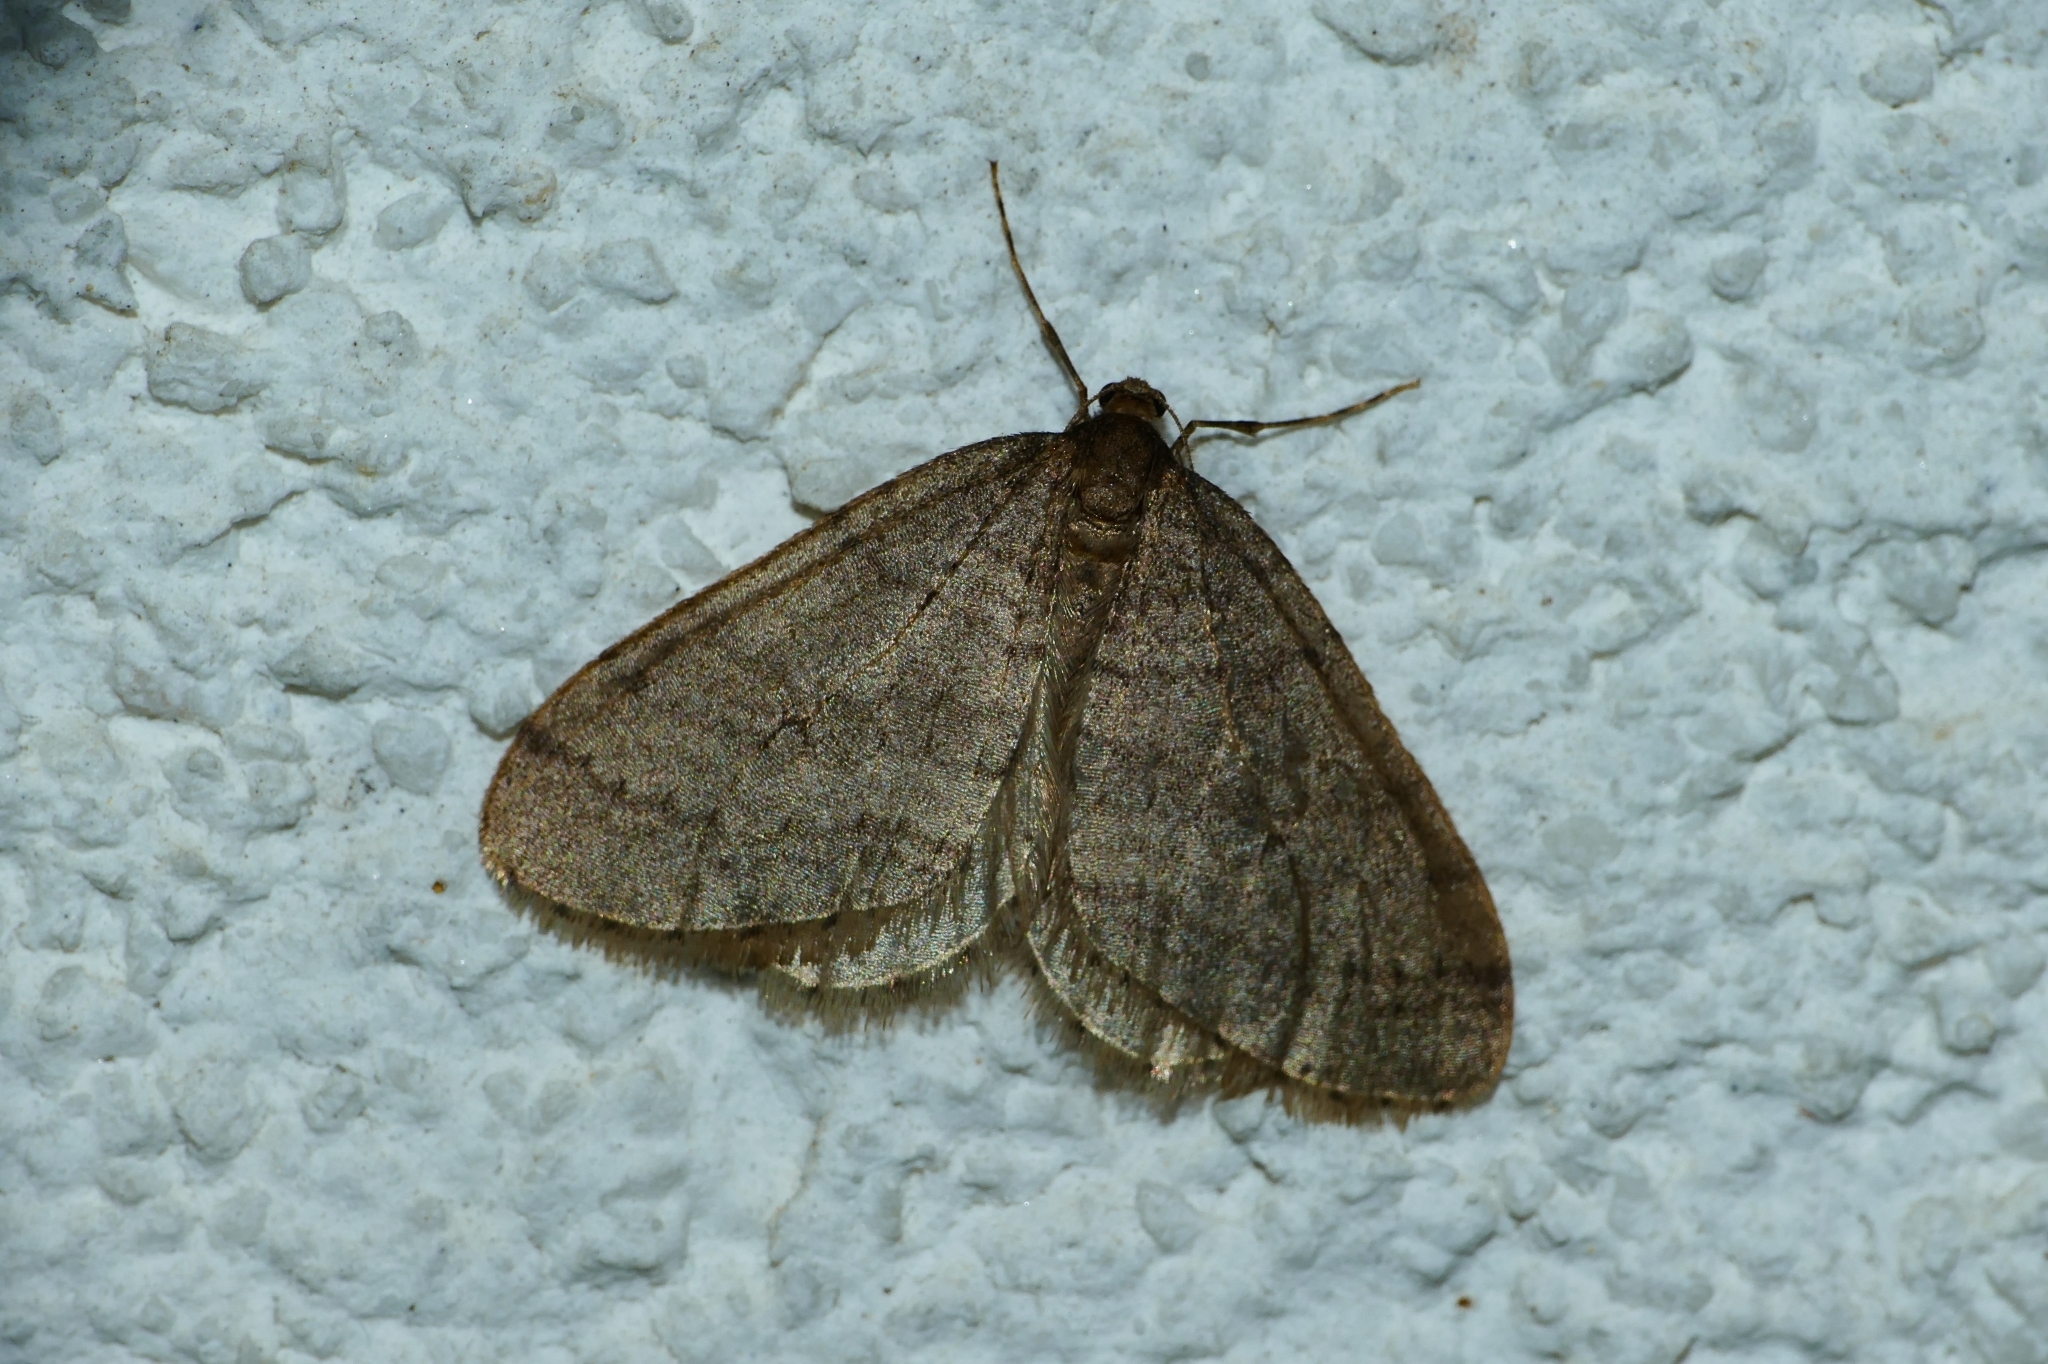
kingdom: Animalia
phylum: Arthropoda
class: Insecta
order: Lepidoptera
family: Geometridae
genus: Operophtera
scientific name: Operophtera brumata
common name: Winter moth
